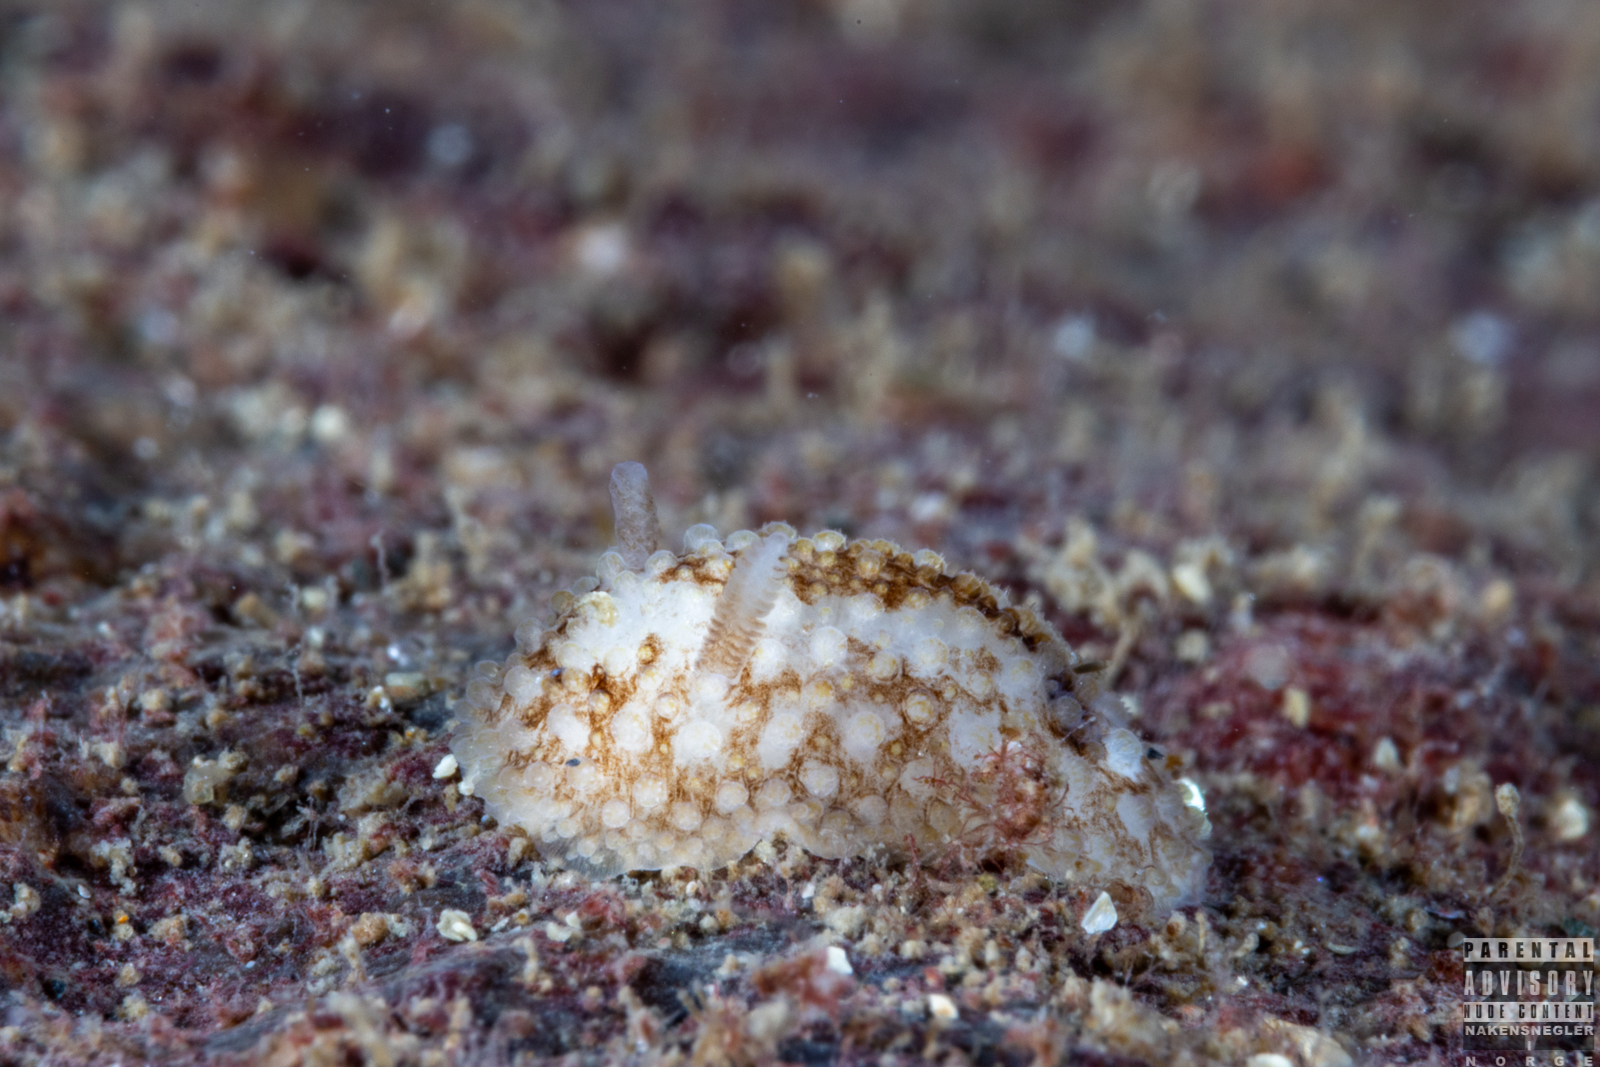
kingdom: Animalia
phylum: Mollusca
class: Gastropoda
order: Nudibranchia
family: Onchidorididae
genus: Onchidoris
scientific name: Onchidoris bilamellata
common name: Barnacle-eating onchidoris
